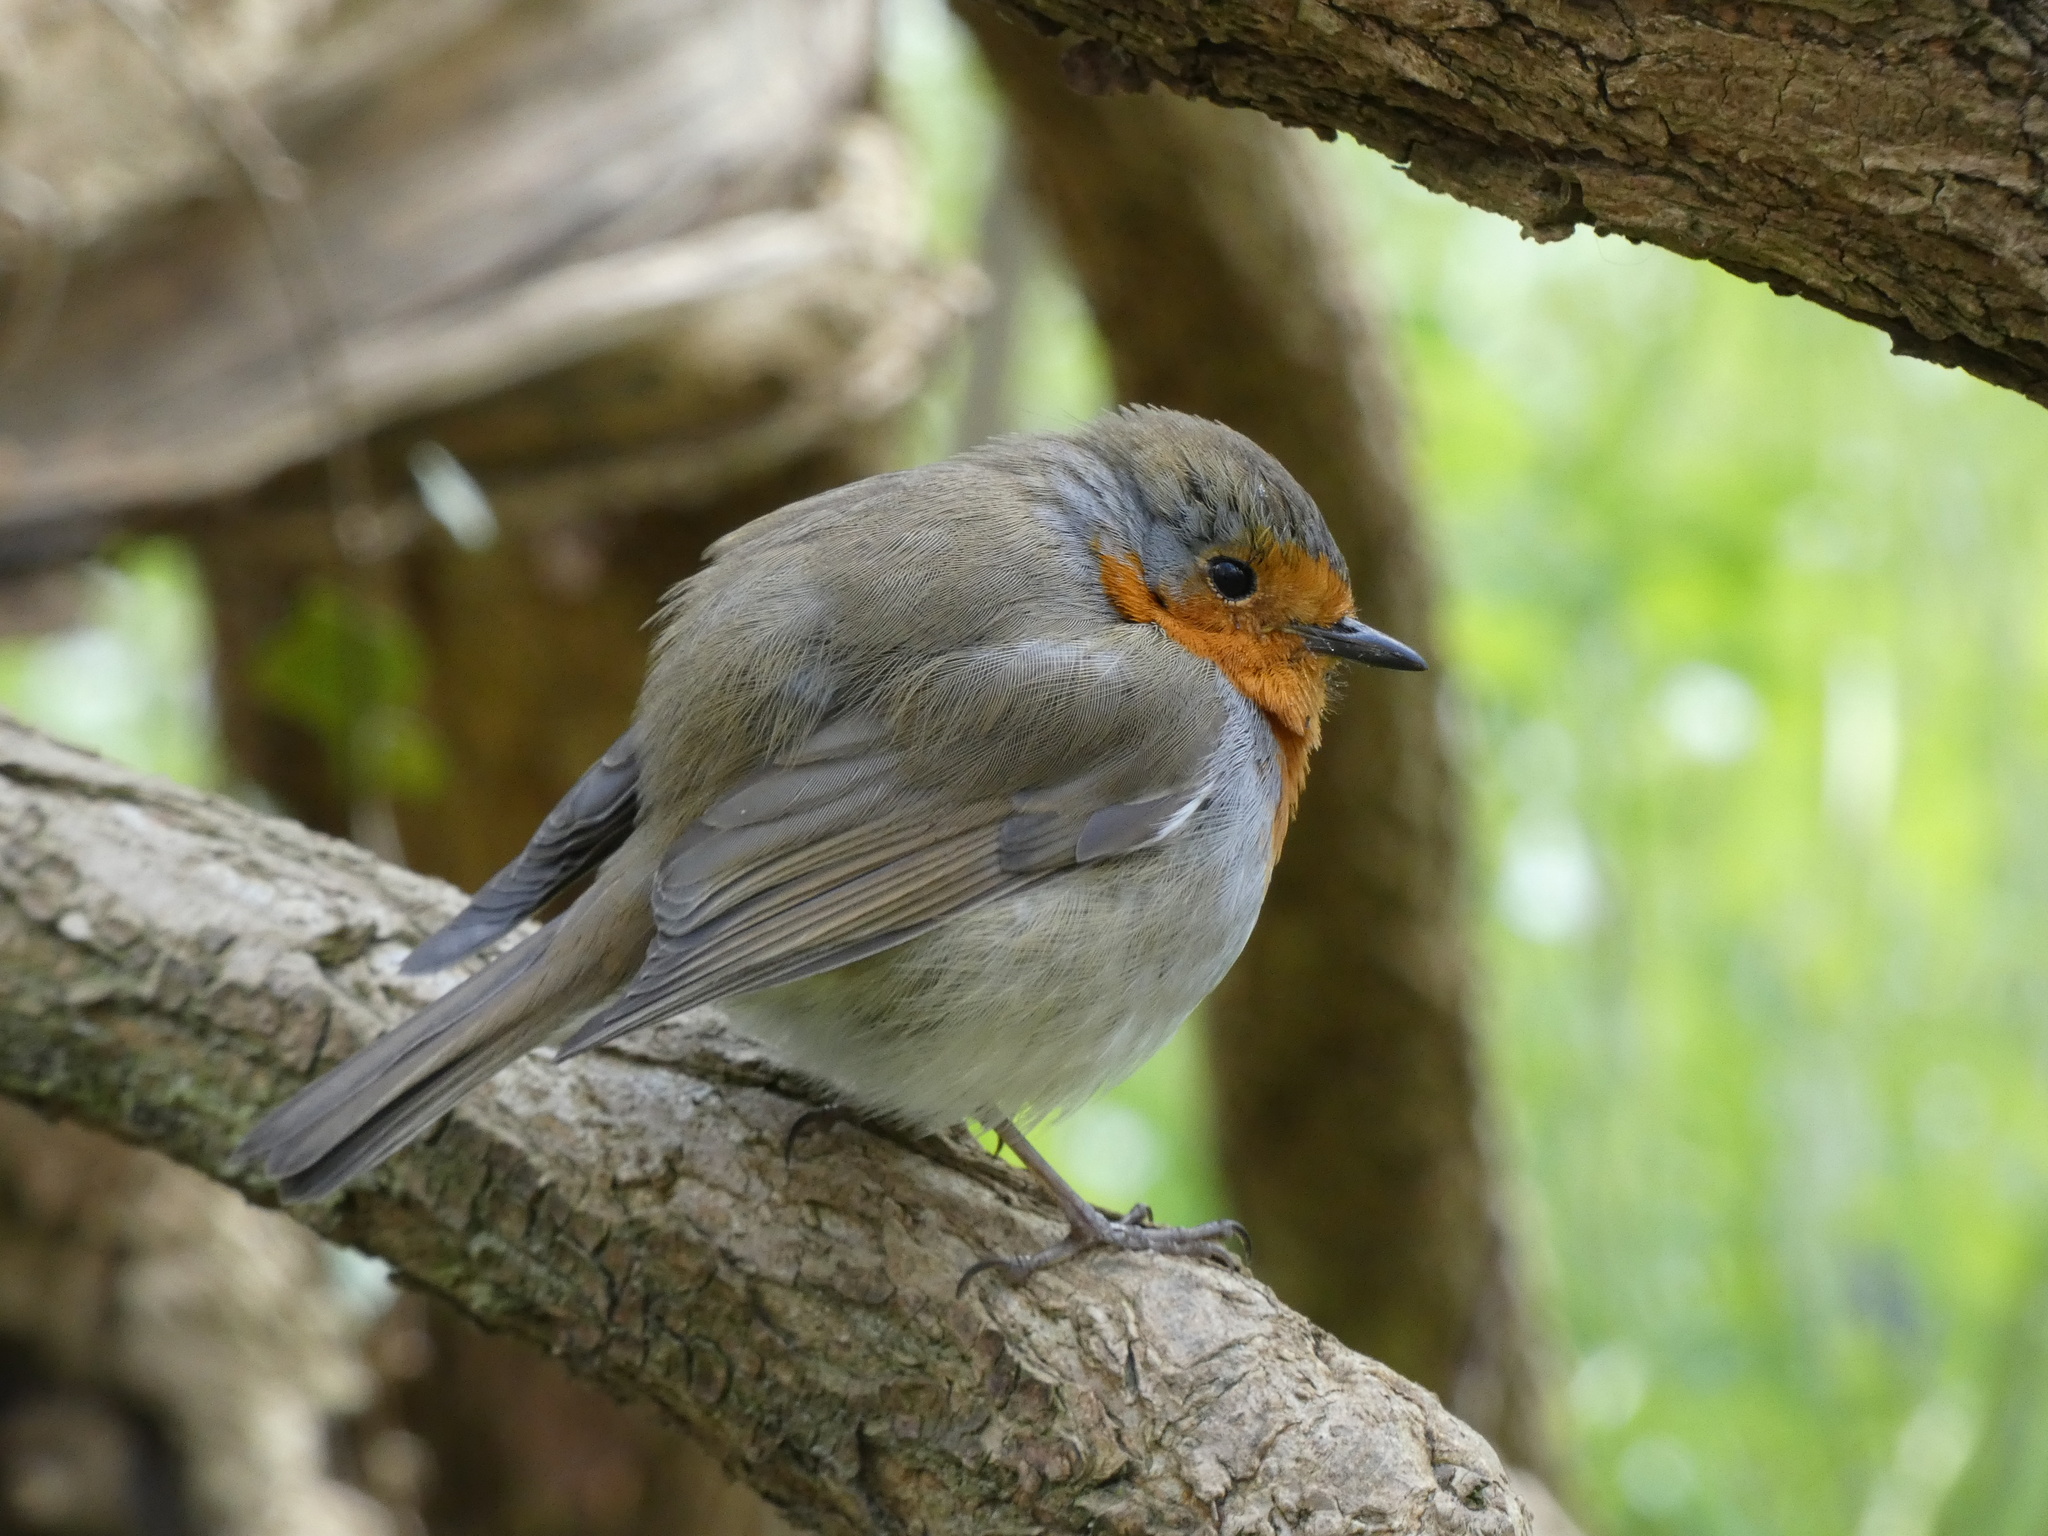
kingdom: Animalia
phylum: Chordata
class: Aves
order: Passeriformes
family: Muscicapidae
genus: Erithacus
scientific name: Erithacus rubecula
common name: European robin
